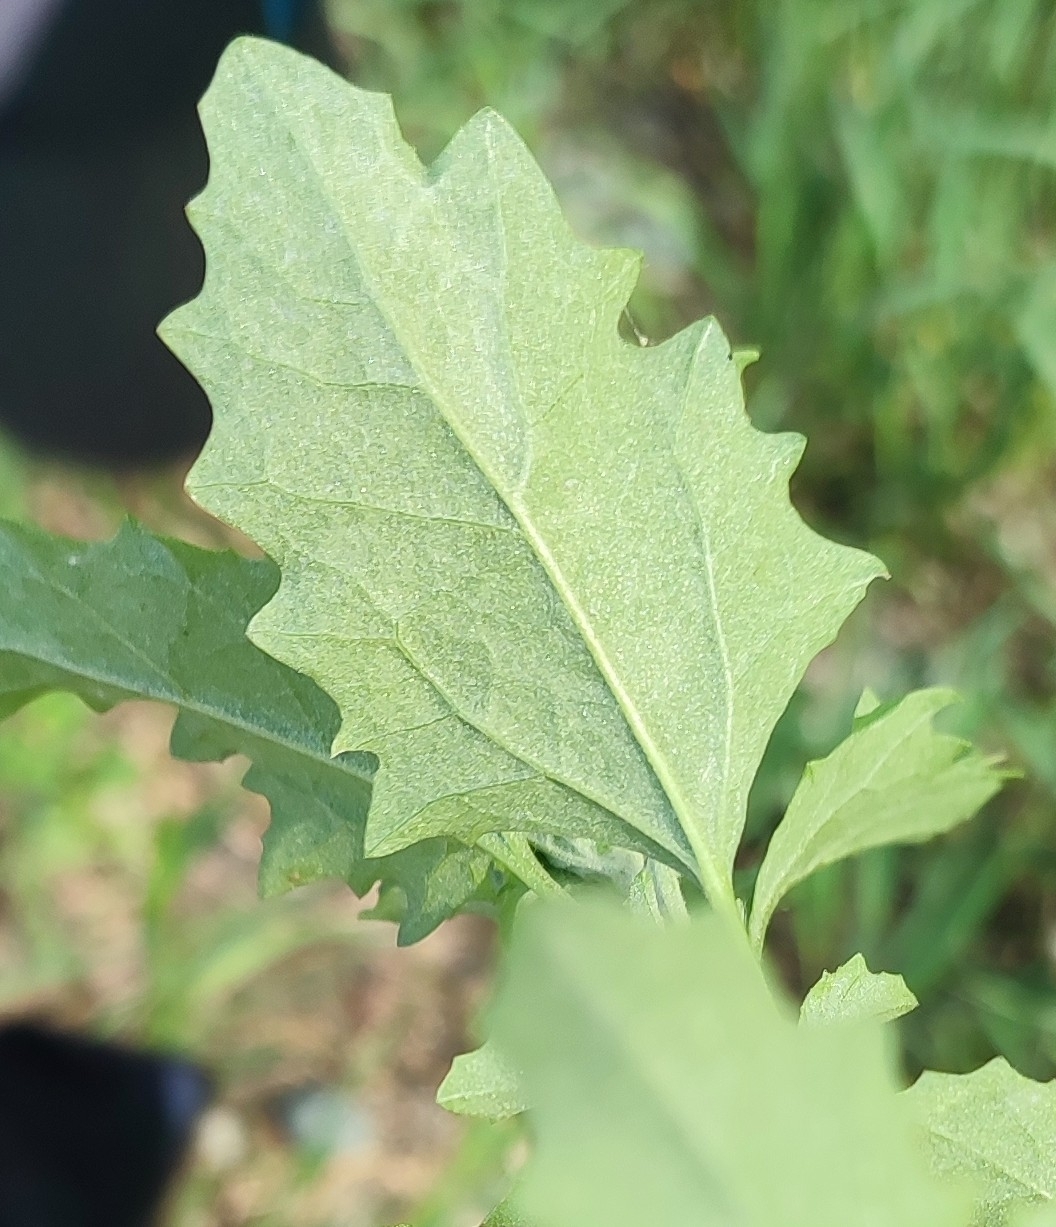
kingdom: Plantae
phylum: Tracheophyta
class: Magnoliopsida
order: Caryophyllales
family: Amaranthaceae
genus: Atriplex
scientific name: Atriplex tatarica
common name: Tatarian orache
